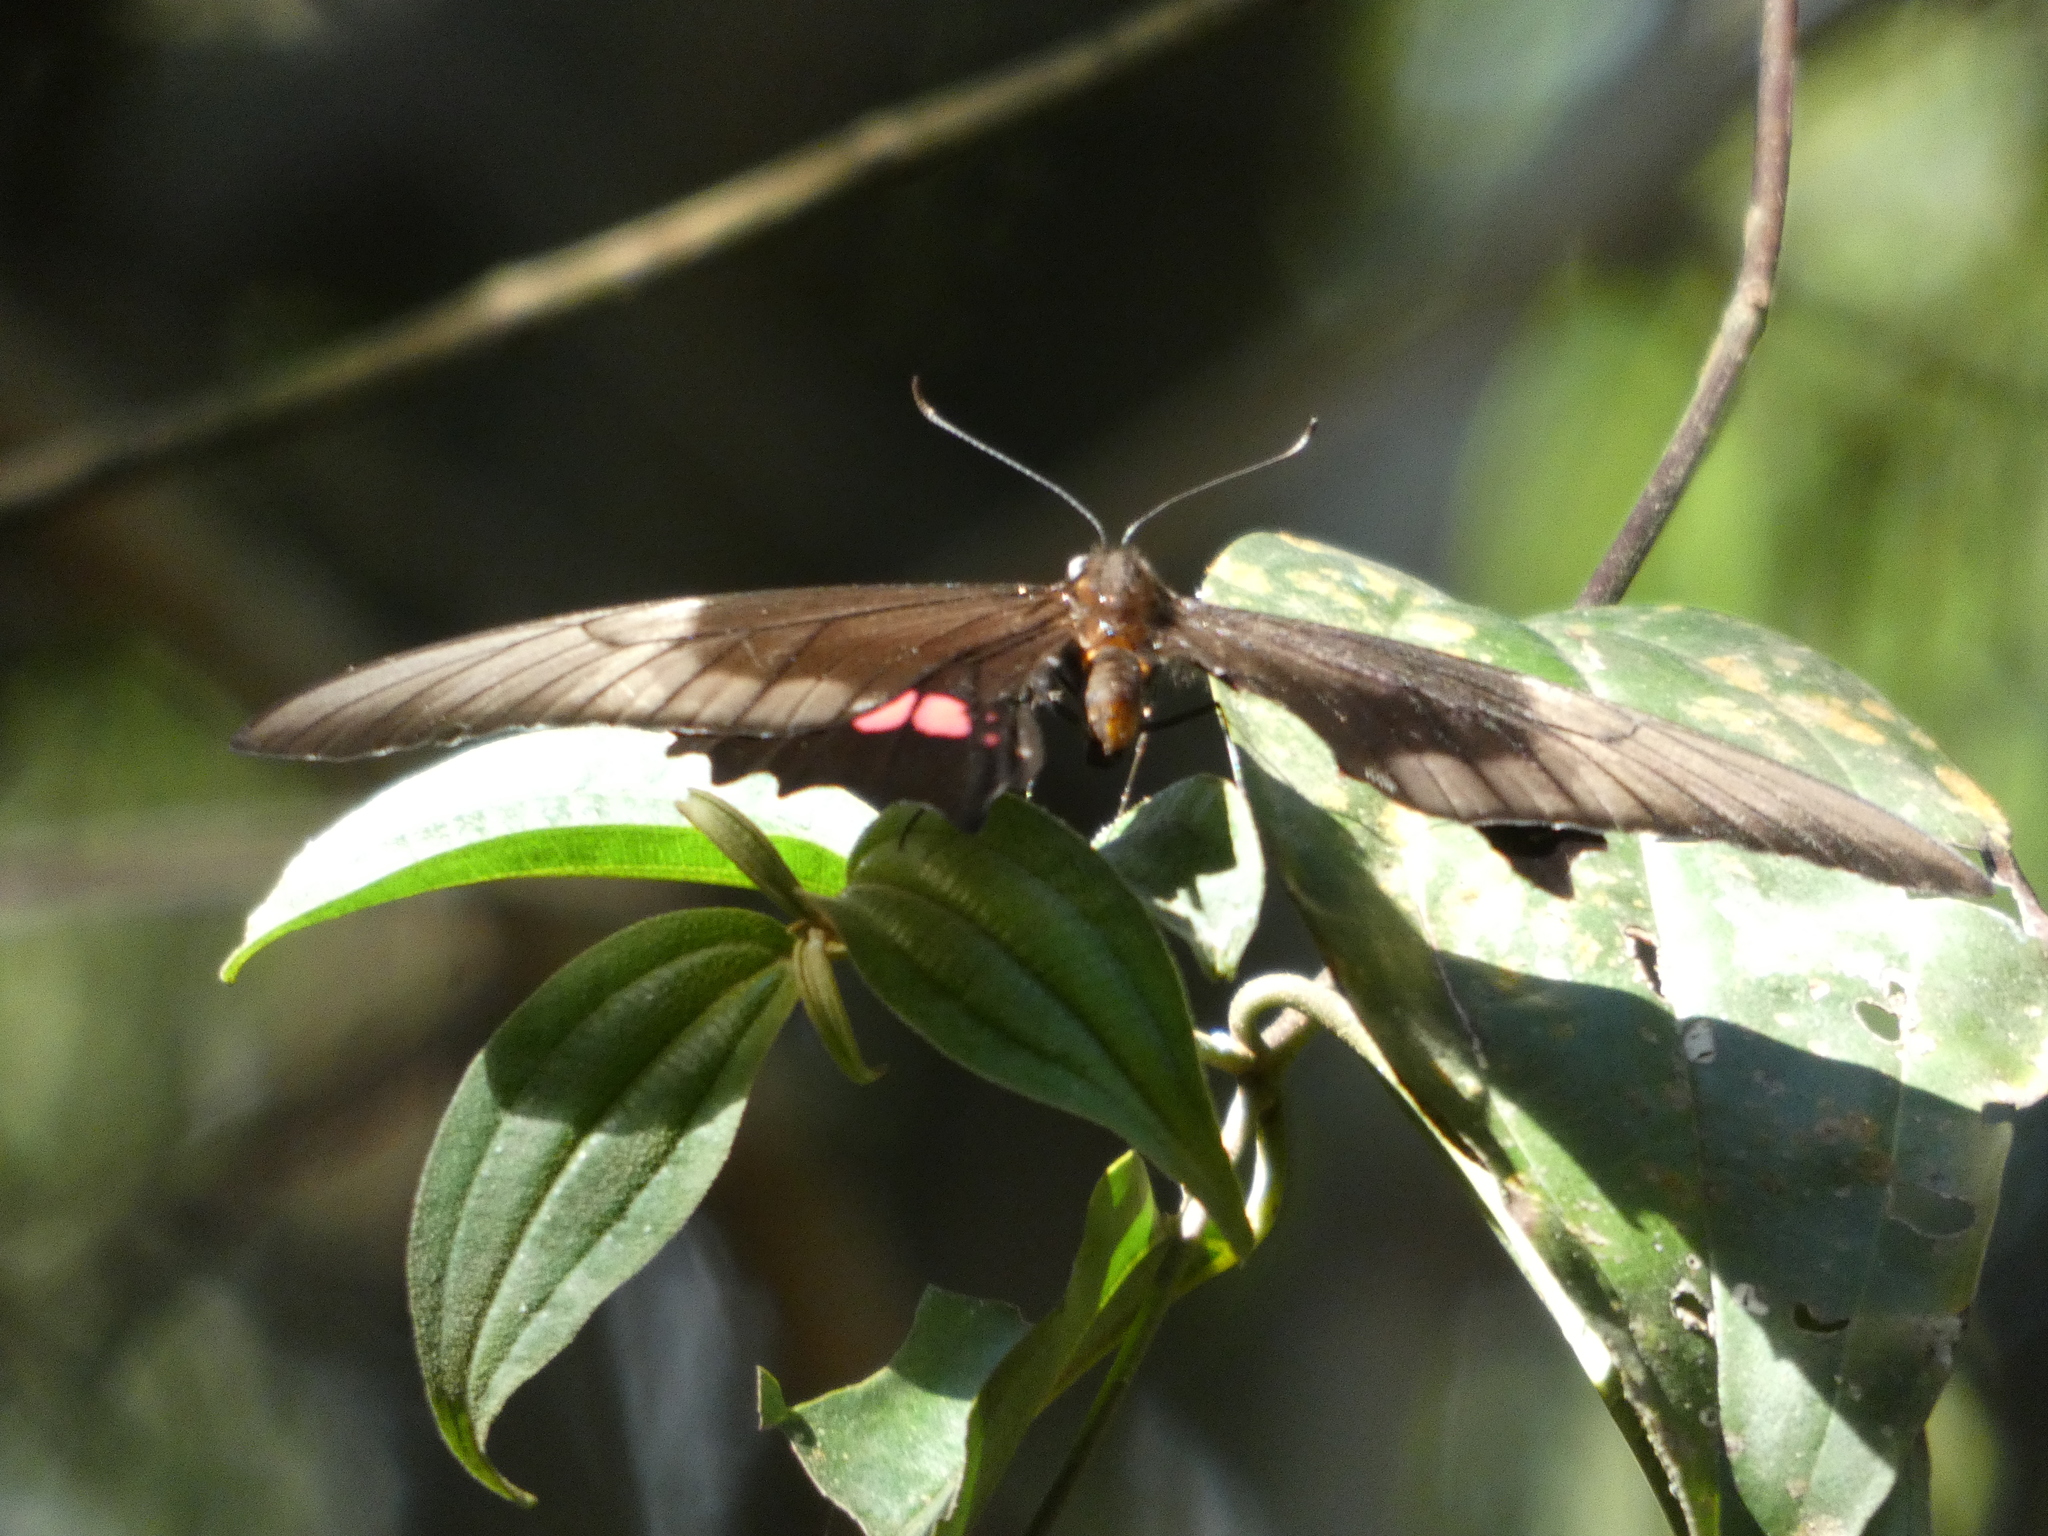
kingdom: Animalia
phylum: Arthropoda
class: Insecta
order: Lepidoptera
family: Papilionidae
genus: Papilio
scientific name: Papilio anchisiades
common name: Idaes swallowtail
